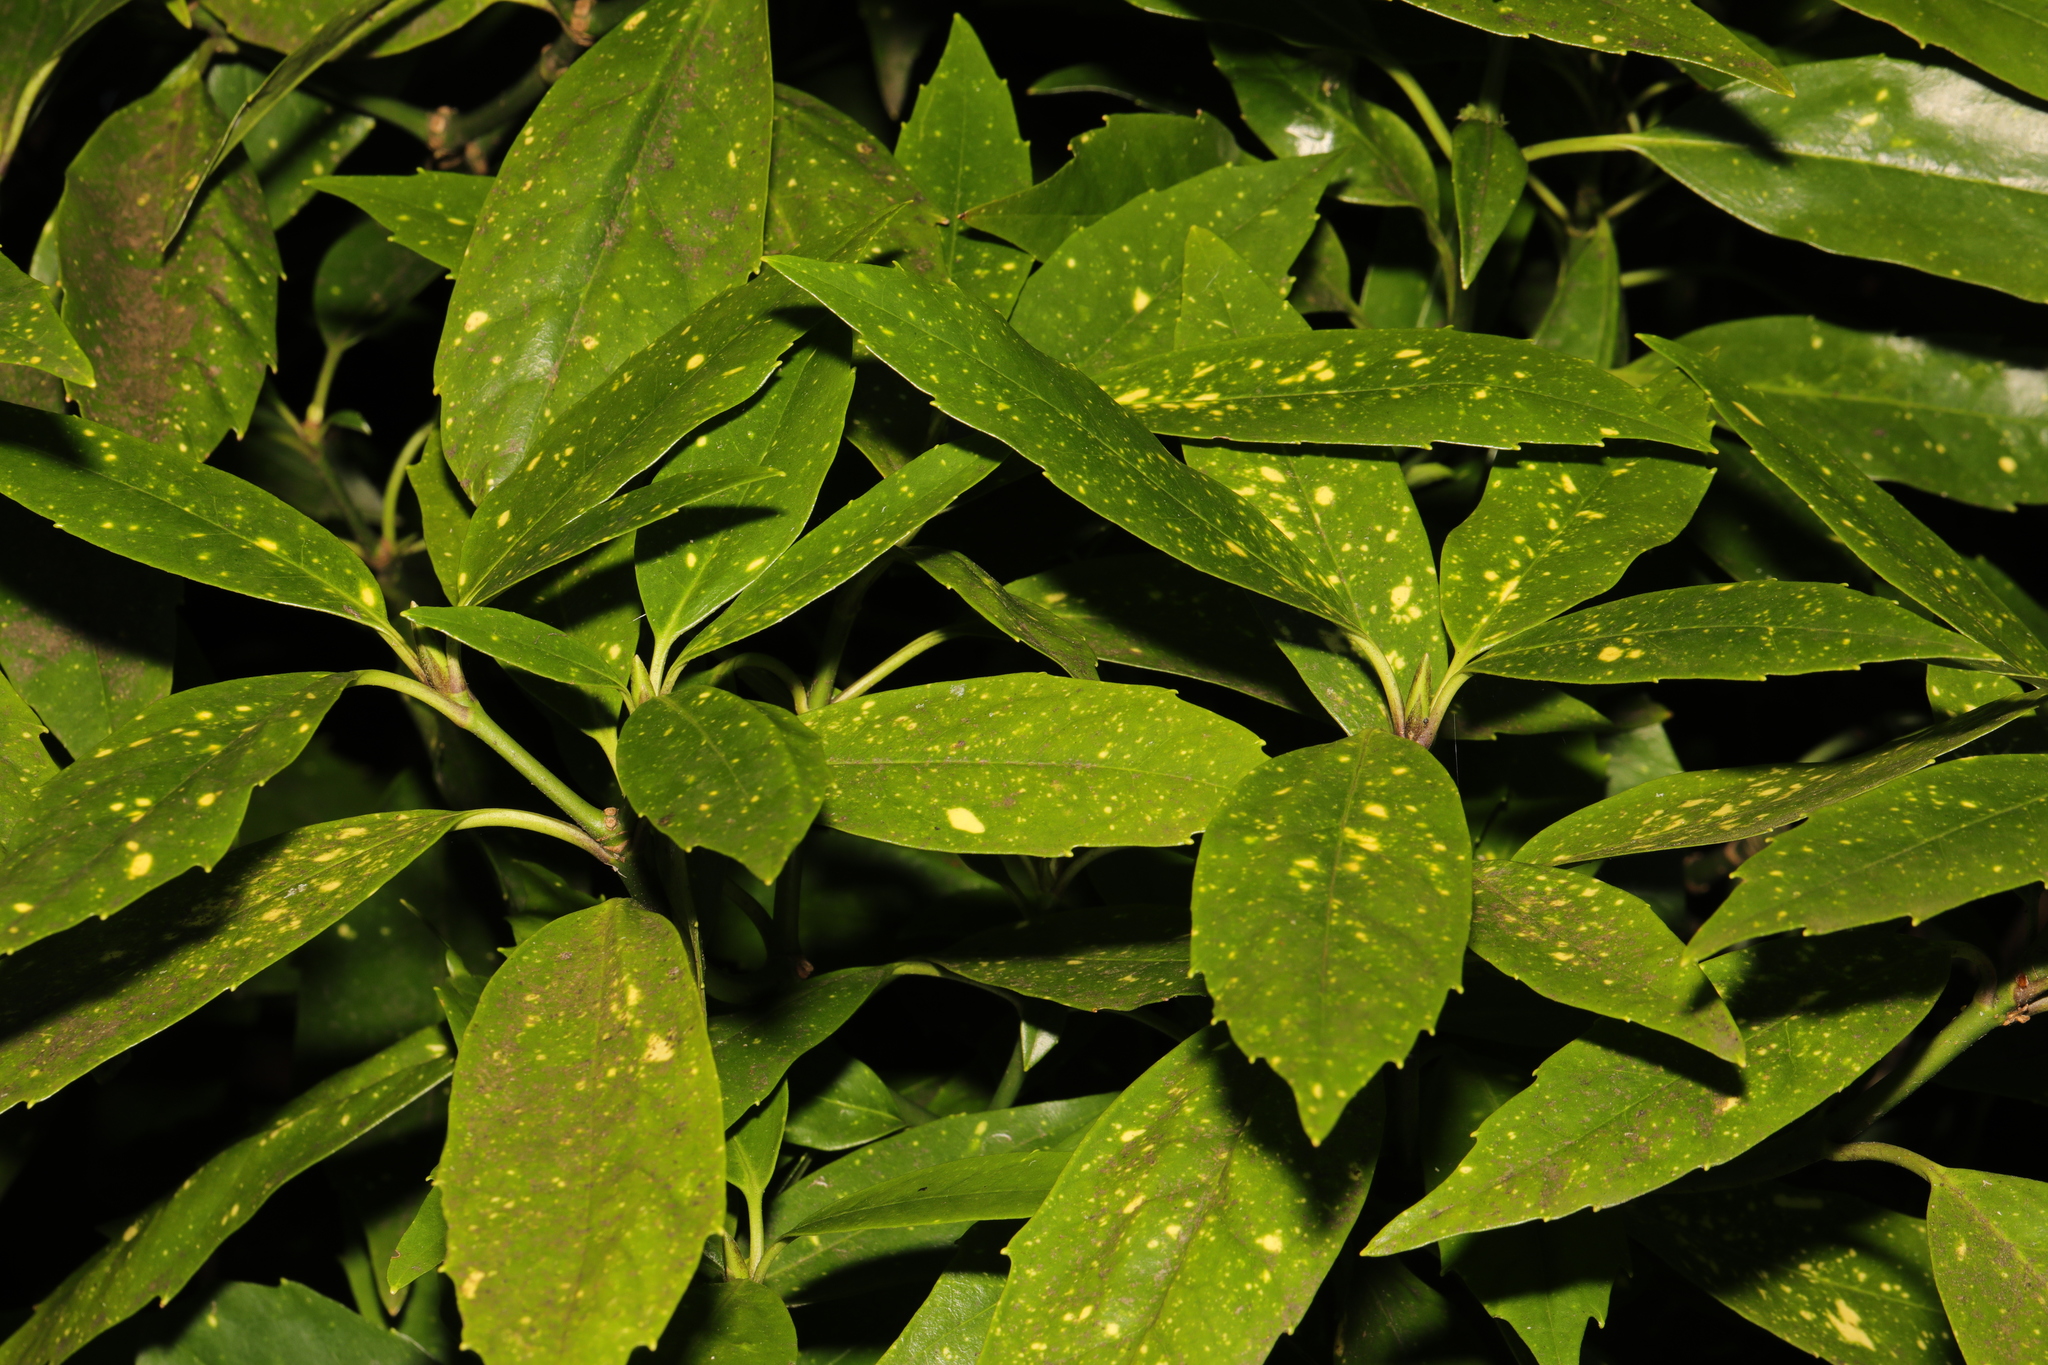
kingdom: Plantae
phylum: Tracheophyta
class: Magnoliopsida
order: Garryales
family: Garryaceae
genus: Aucuba
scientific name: Aucuba japonica
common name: Spotted-laurel
